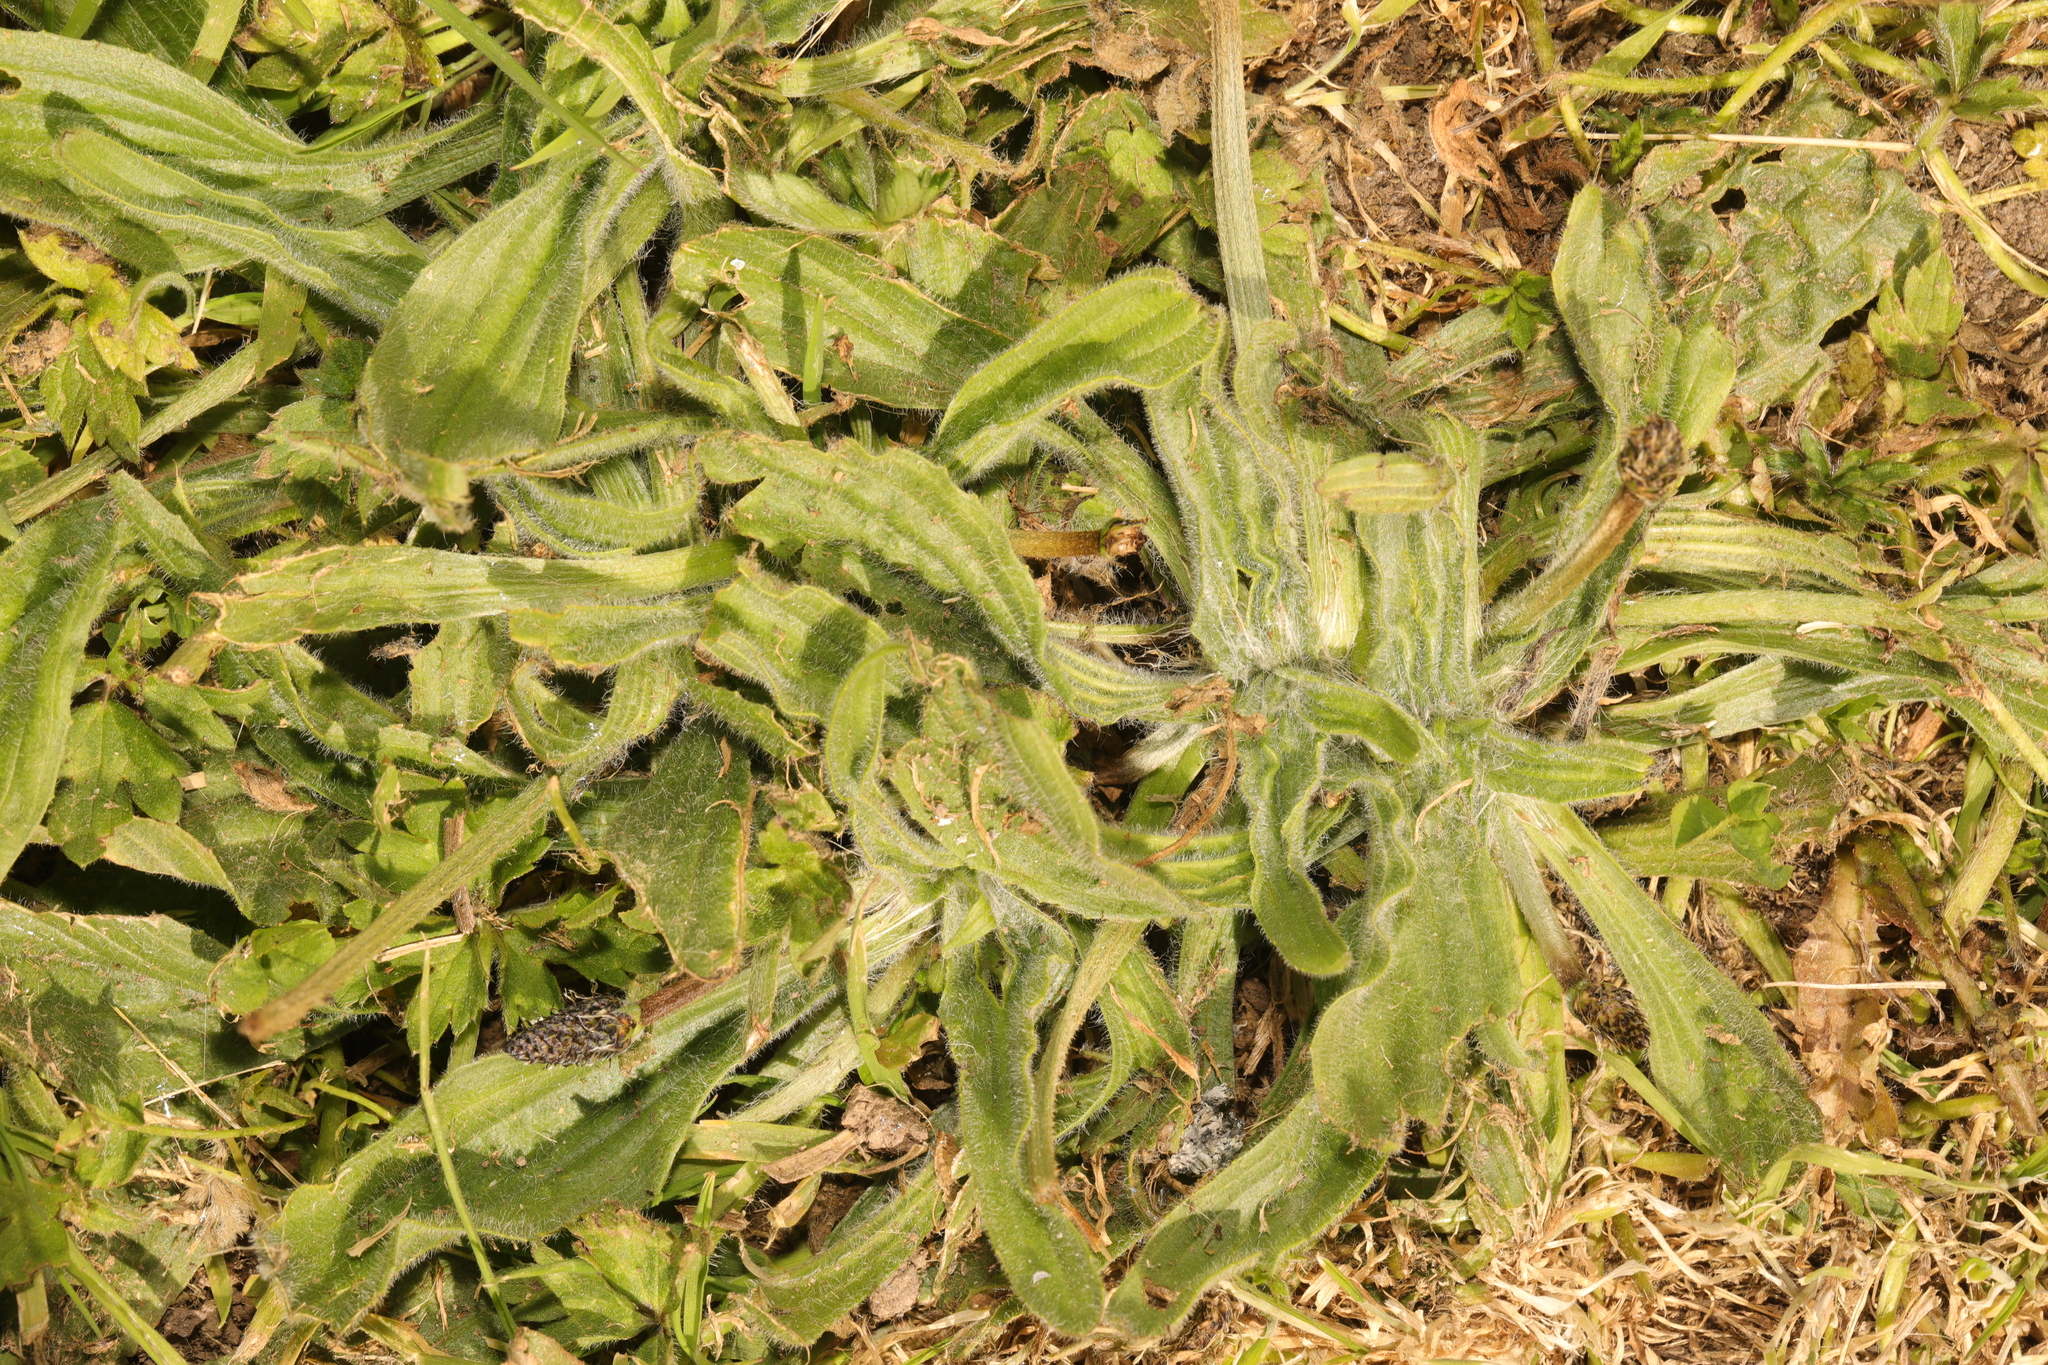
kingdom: Plantae
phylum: Tracheophyta
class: Magnoliopsida
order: Lamiales
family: Plantaginaceae
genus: Plantago
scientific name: Plantago lanceolata
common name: Ribwort plantain
